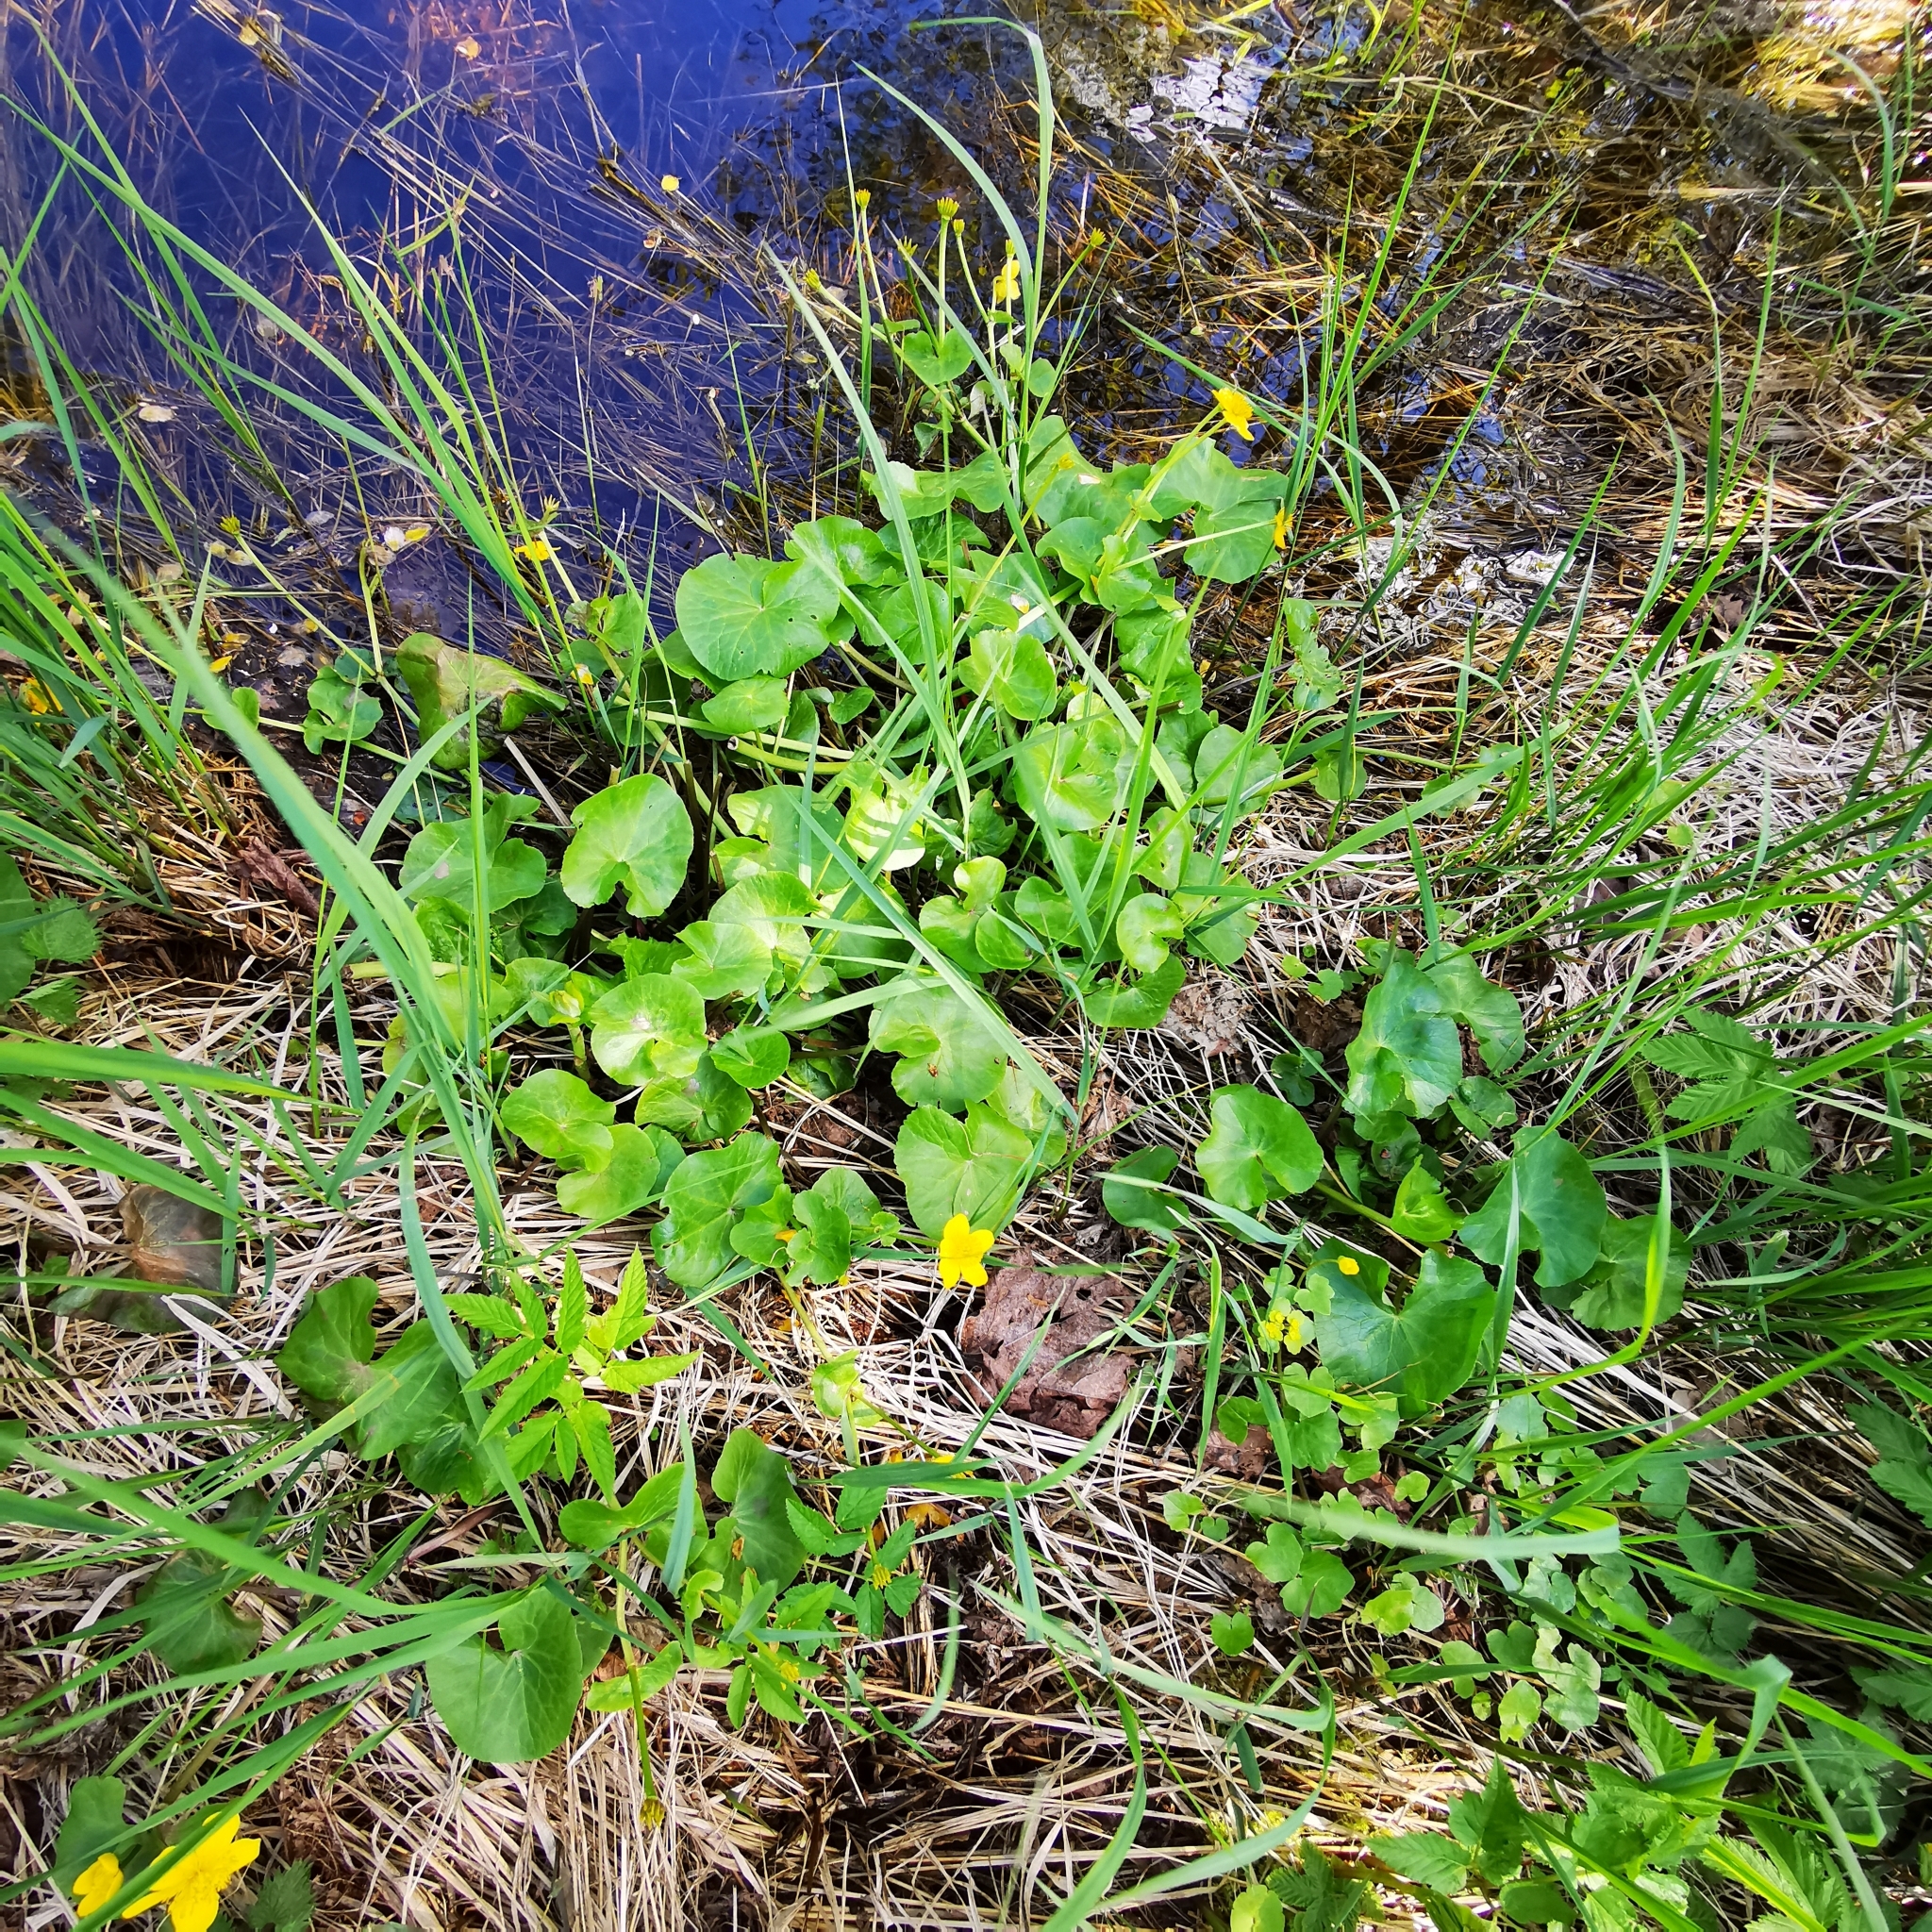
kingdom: Plantae
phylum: Tracheophyta
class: Magnoliopsida
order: Ranunculales
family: Ranunculaceae
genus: Caltha
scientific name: Caltha palustris
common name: Marsh marigold
